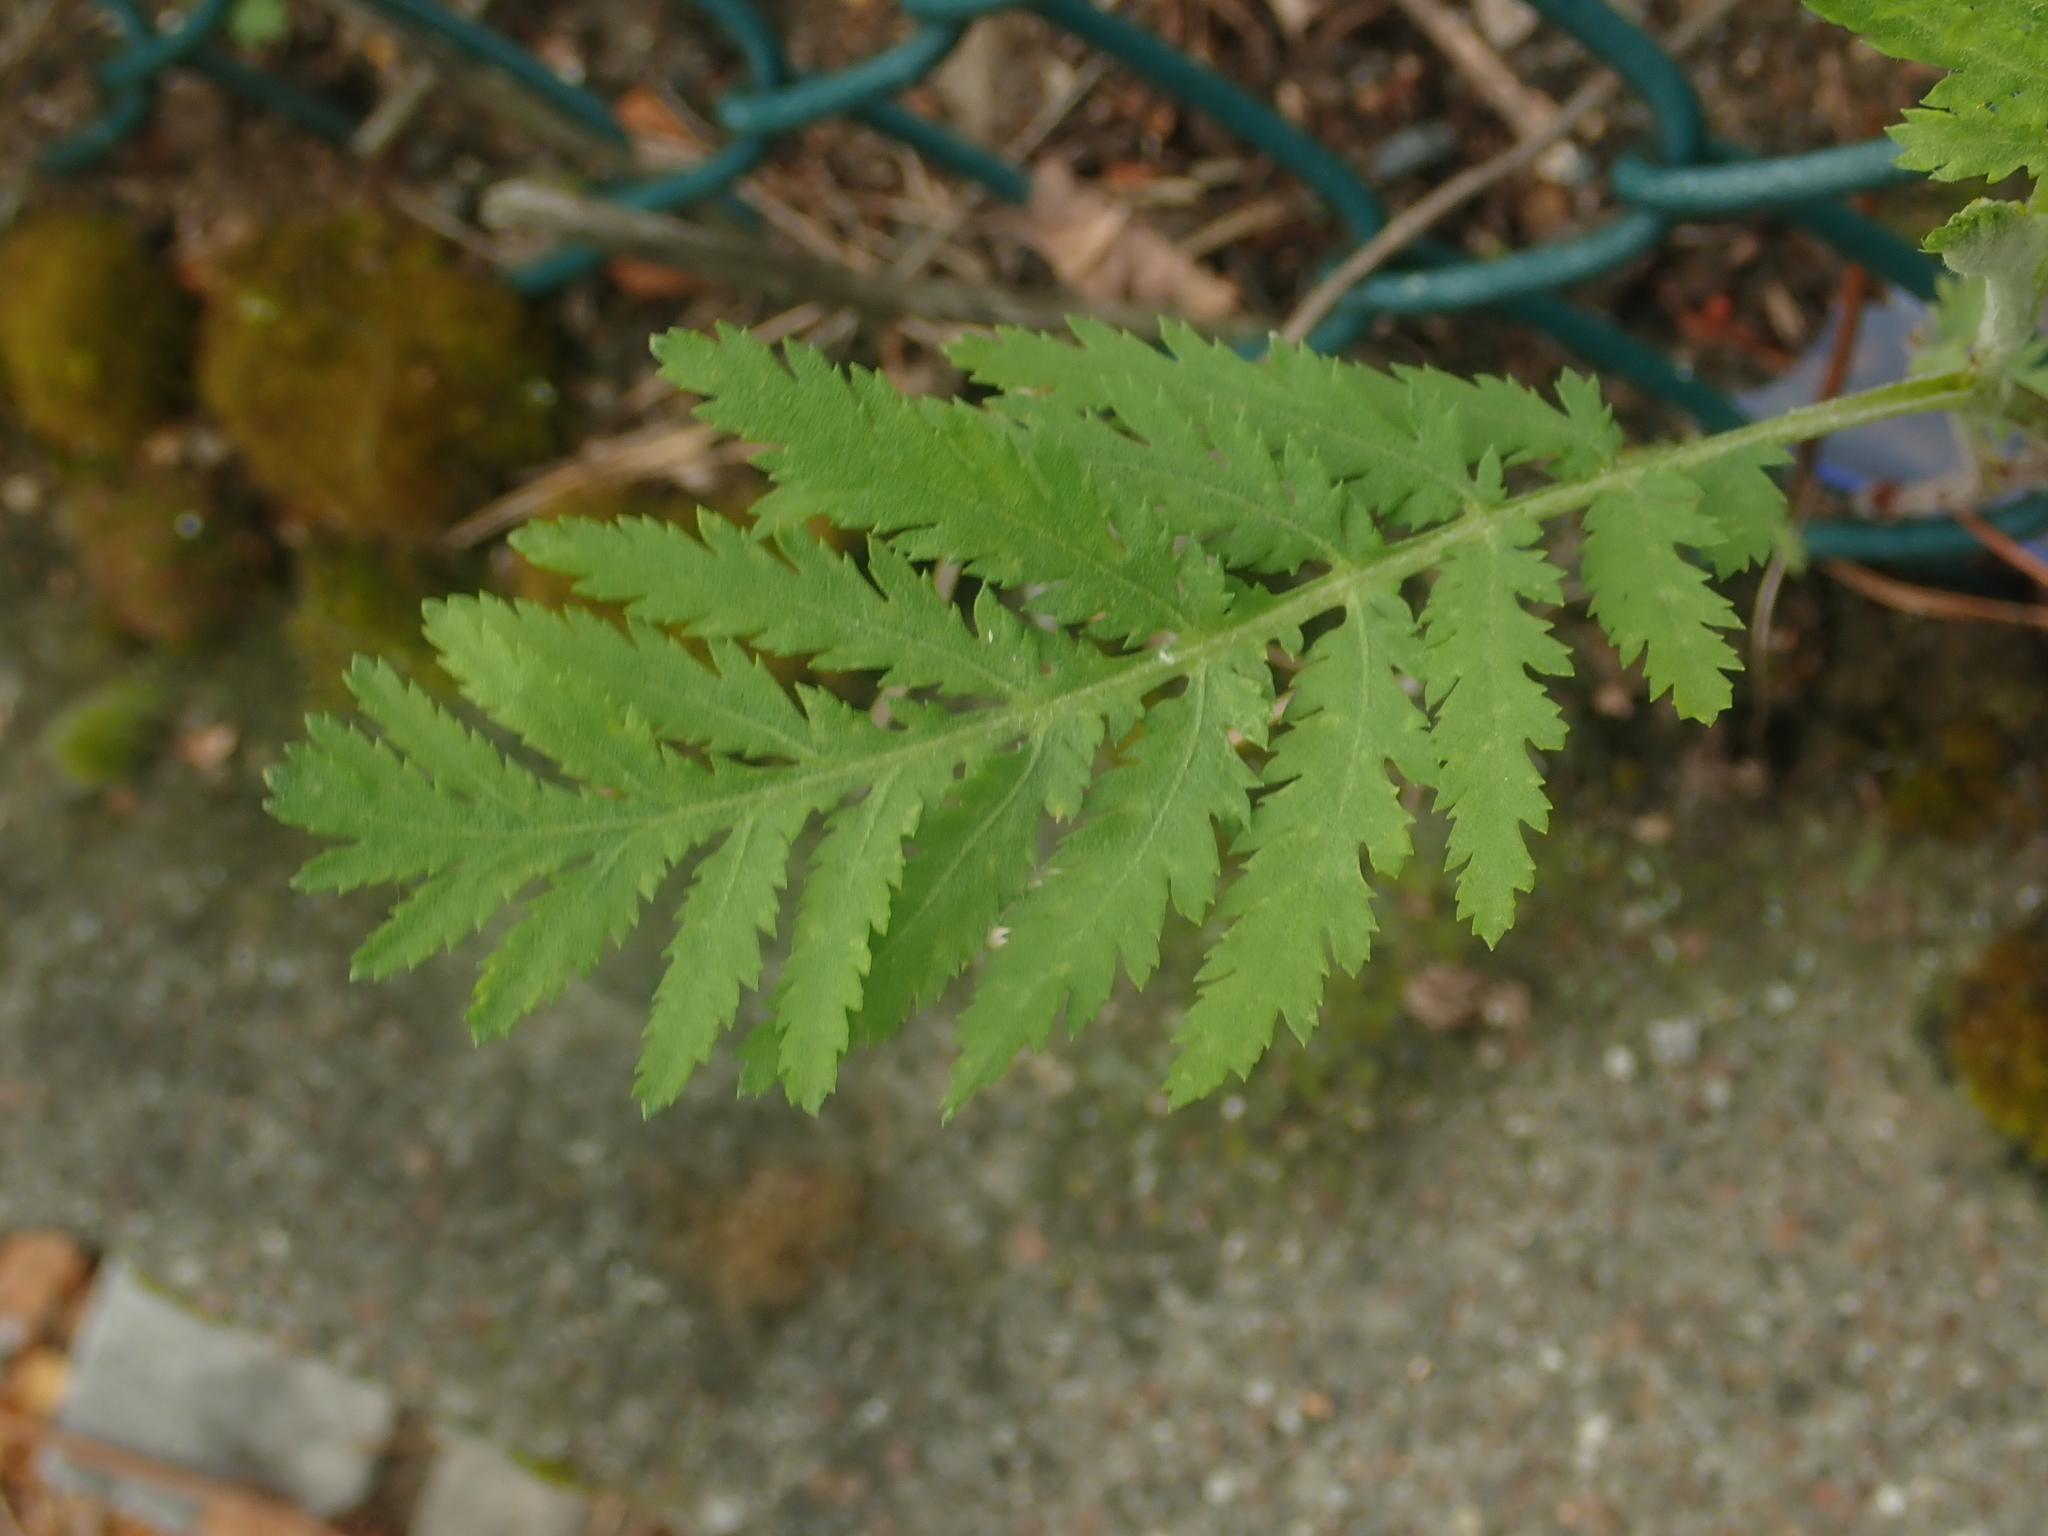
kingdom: Plantae
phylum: Tracheophyta
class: Magnoliopsida
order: Asterales
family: Asteraceae
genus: Tanacetum
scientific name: Tanacetum vulgare
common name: Common tansy
